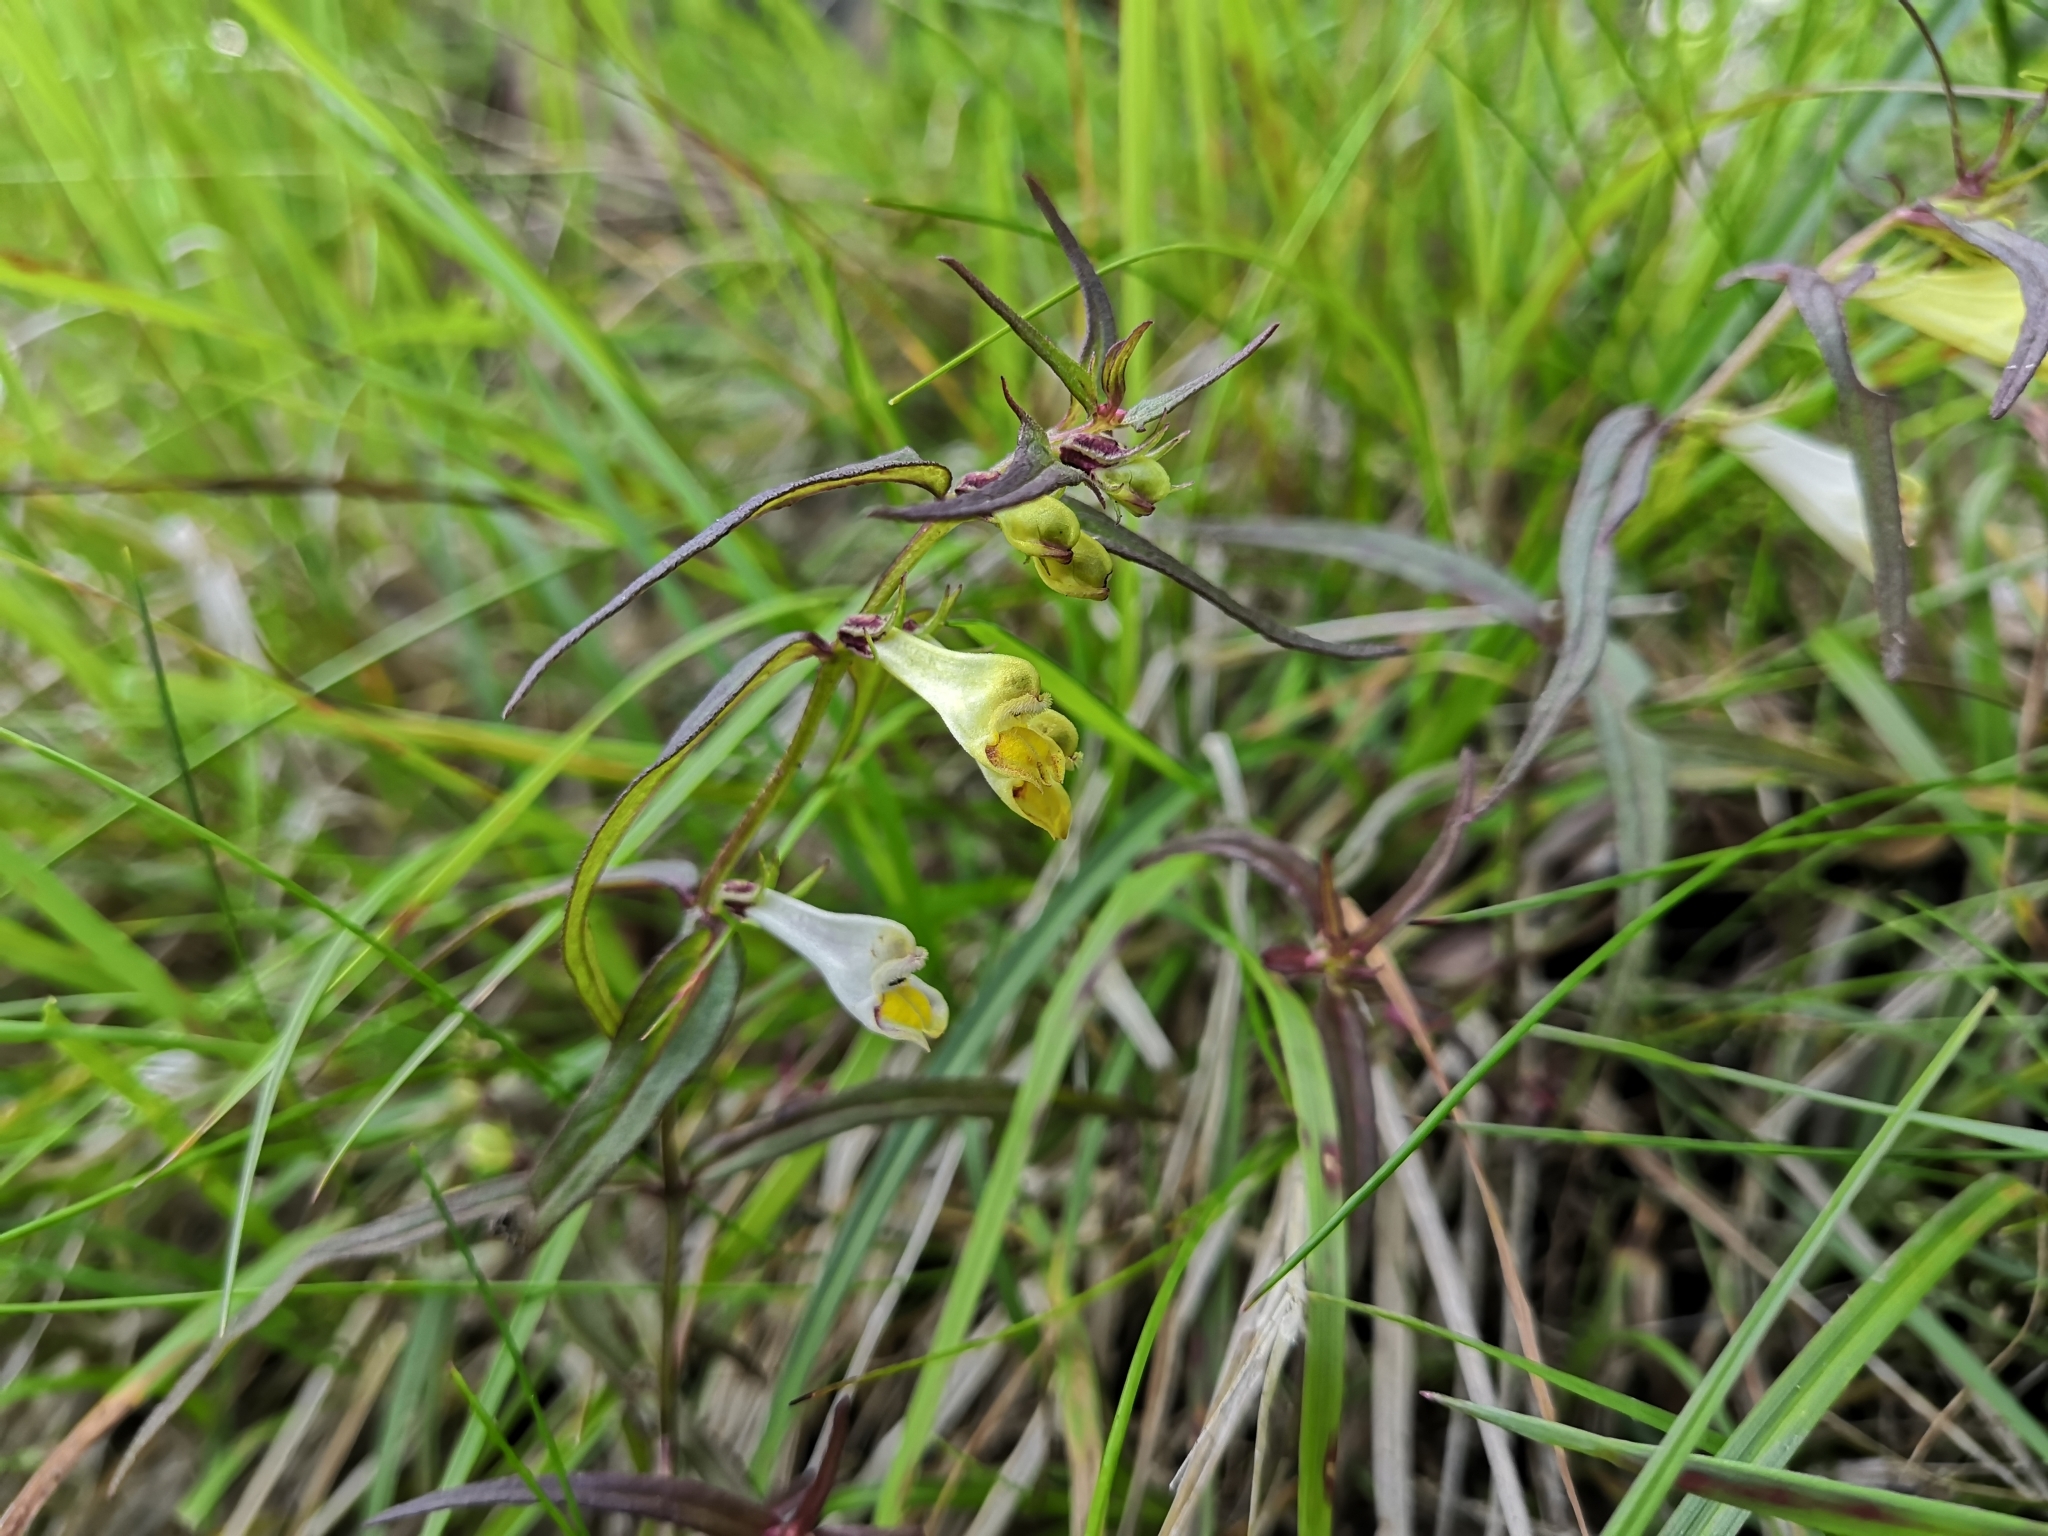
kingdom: Plantae
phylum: Tracheophyta
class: Magnoliopsida
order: Lamiales
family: Orobanchaceae
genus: Melampyrum
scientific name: Melampyrum pratense
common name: Common cow-wheat
